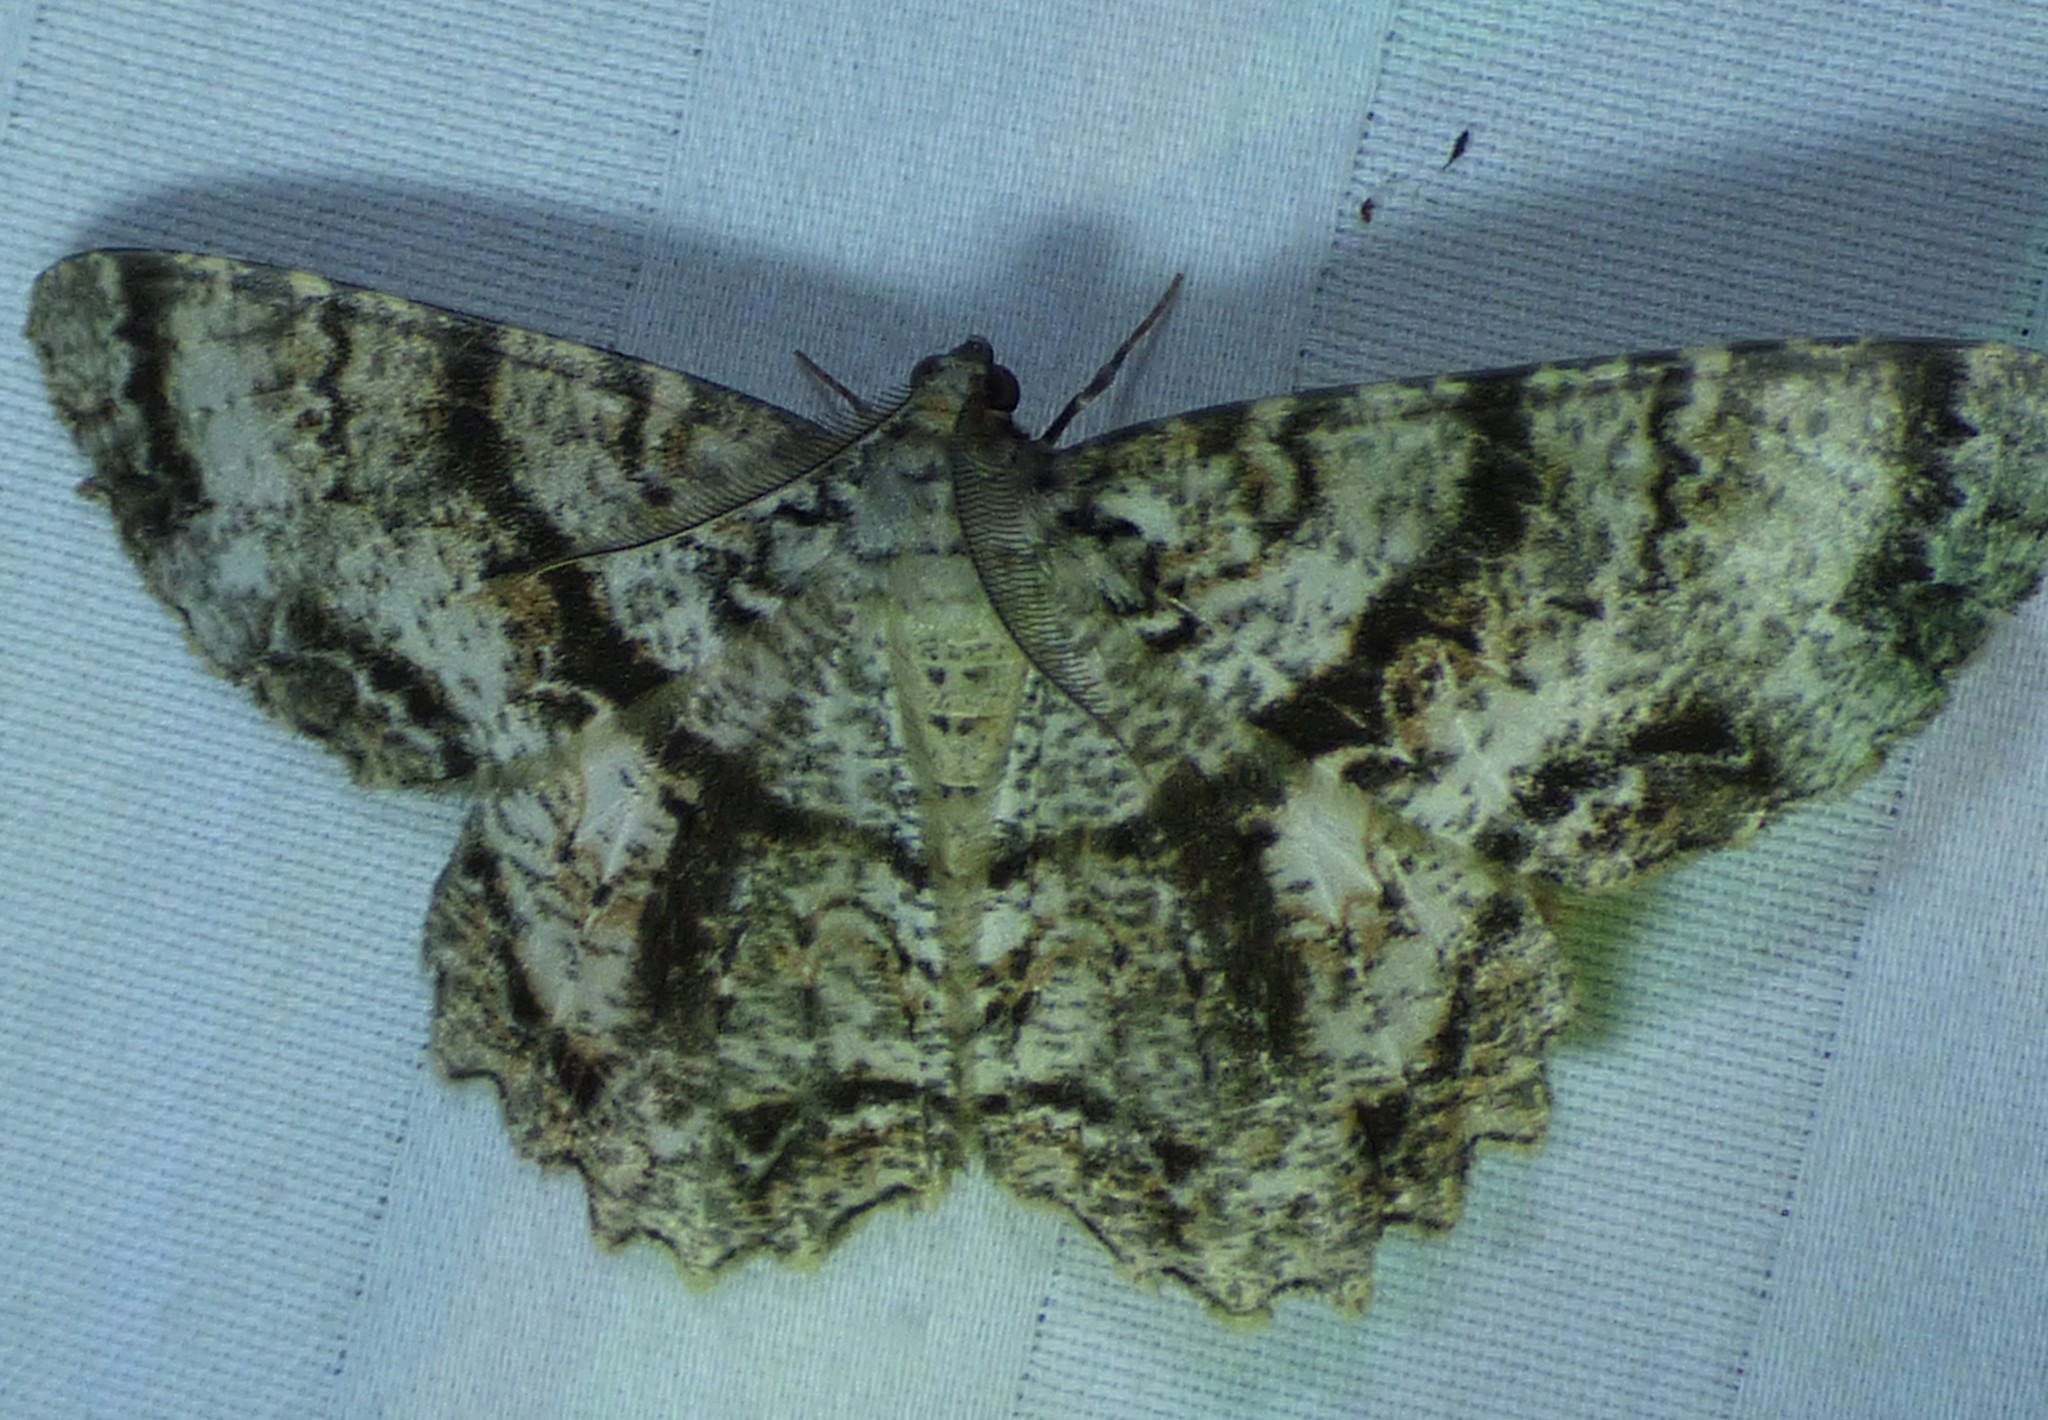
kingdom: Animalia
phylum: Arthropoda
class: Insecta
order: Lepidoptera
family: Geometridae
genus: Epimecis
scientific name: Epimecis hortaria
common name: Tulip-tree beauty
